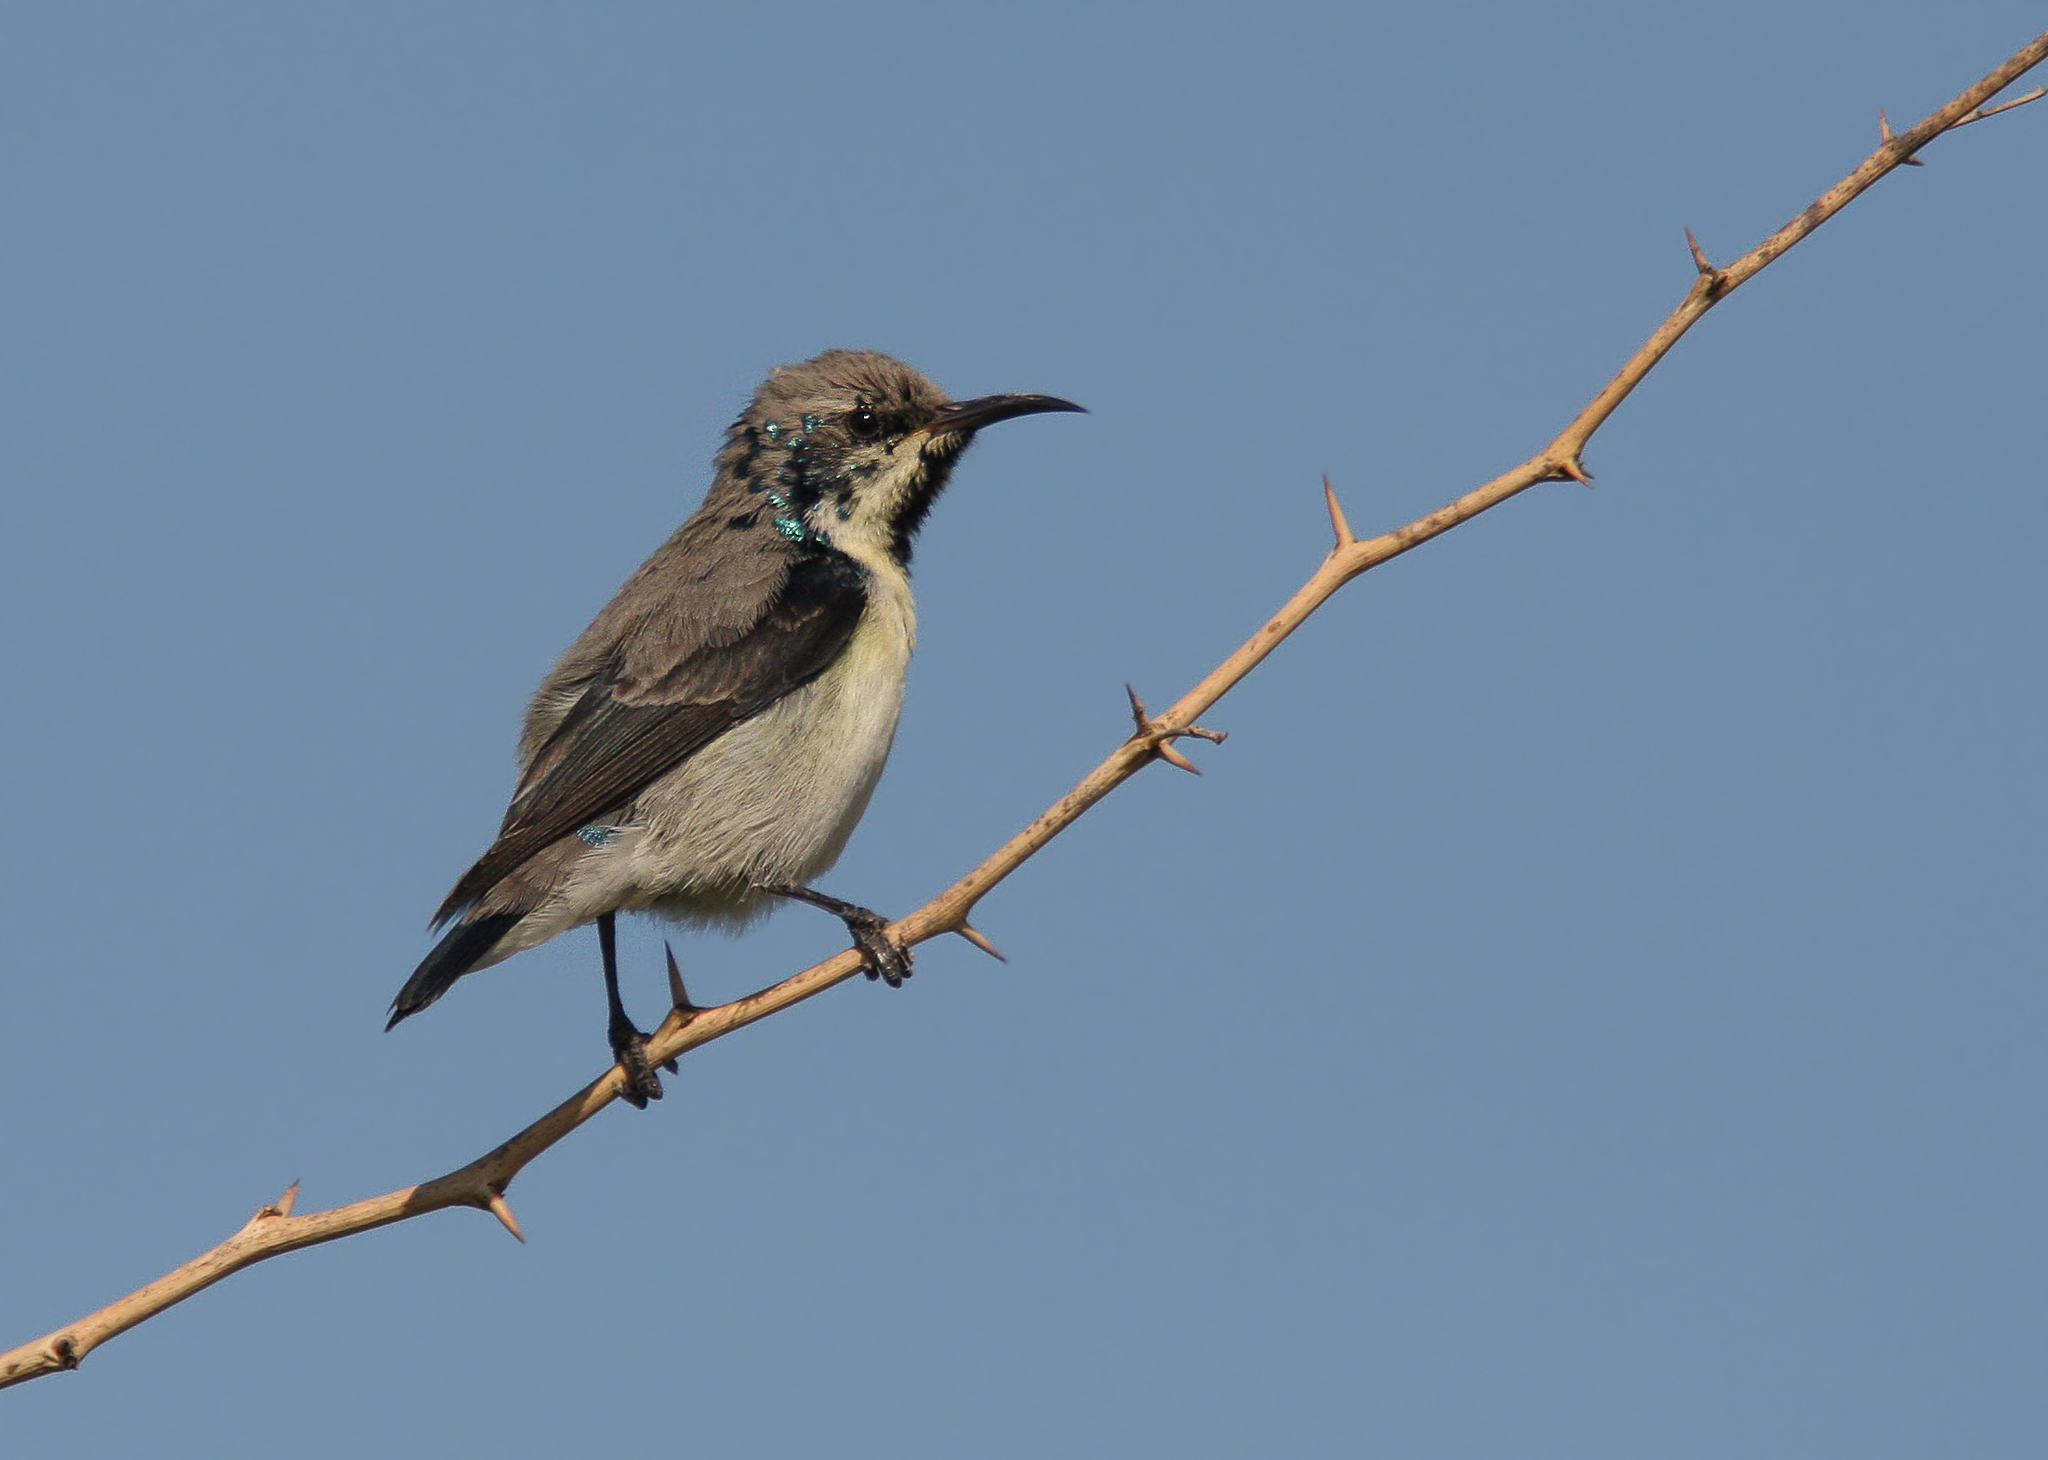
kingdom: Animalia
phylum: Chordata
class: Aves
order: Passeriformes
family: Nectariniidae
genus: Cinnyris
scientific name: Cinnyris asiaticus
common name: Purple sunbird
